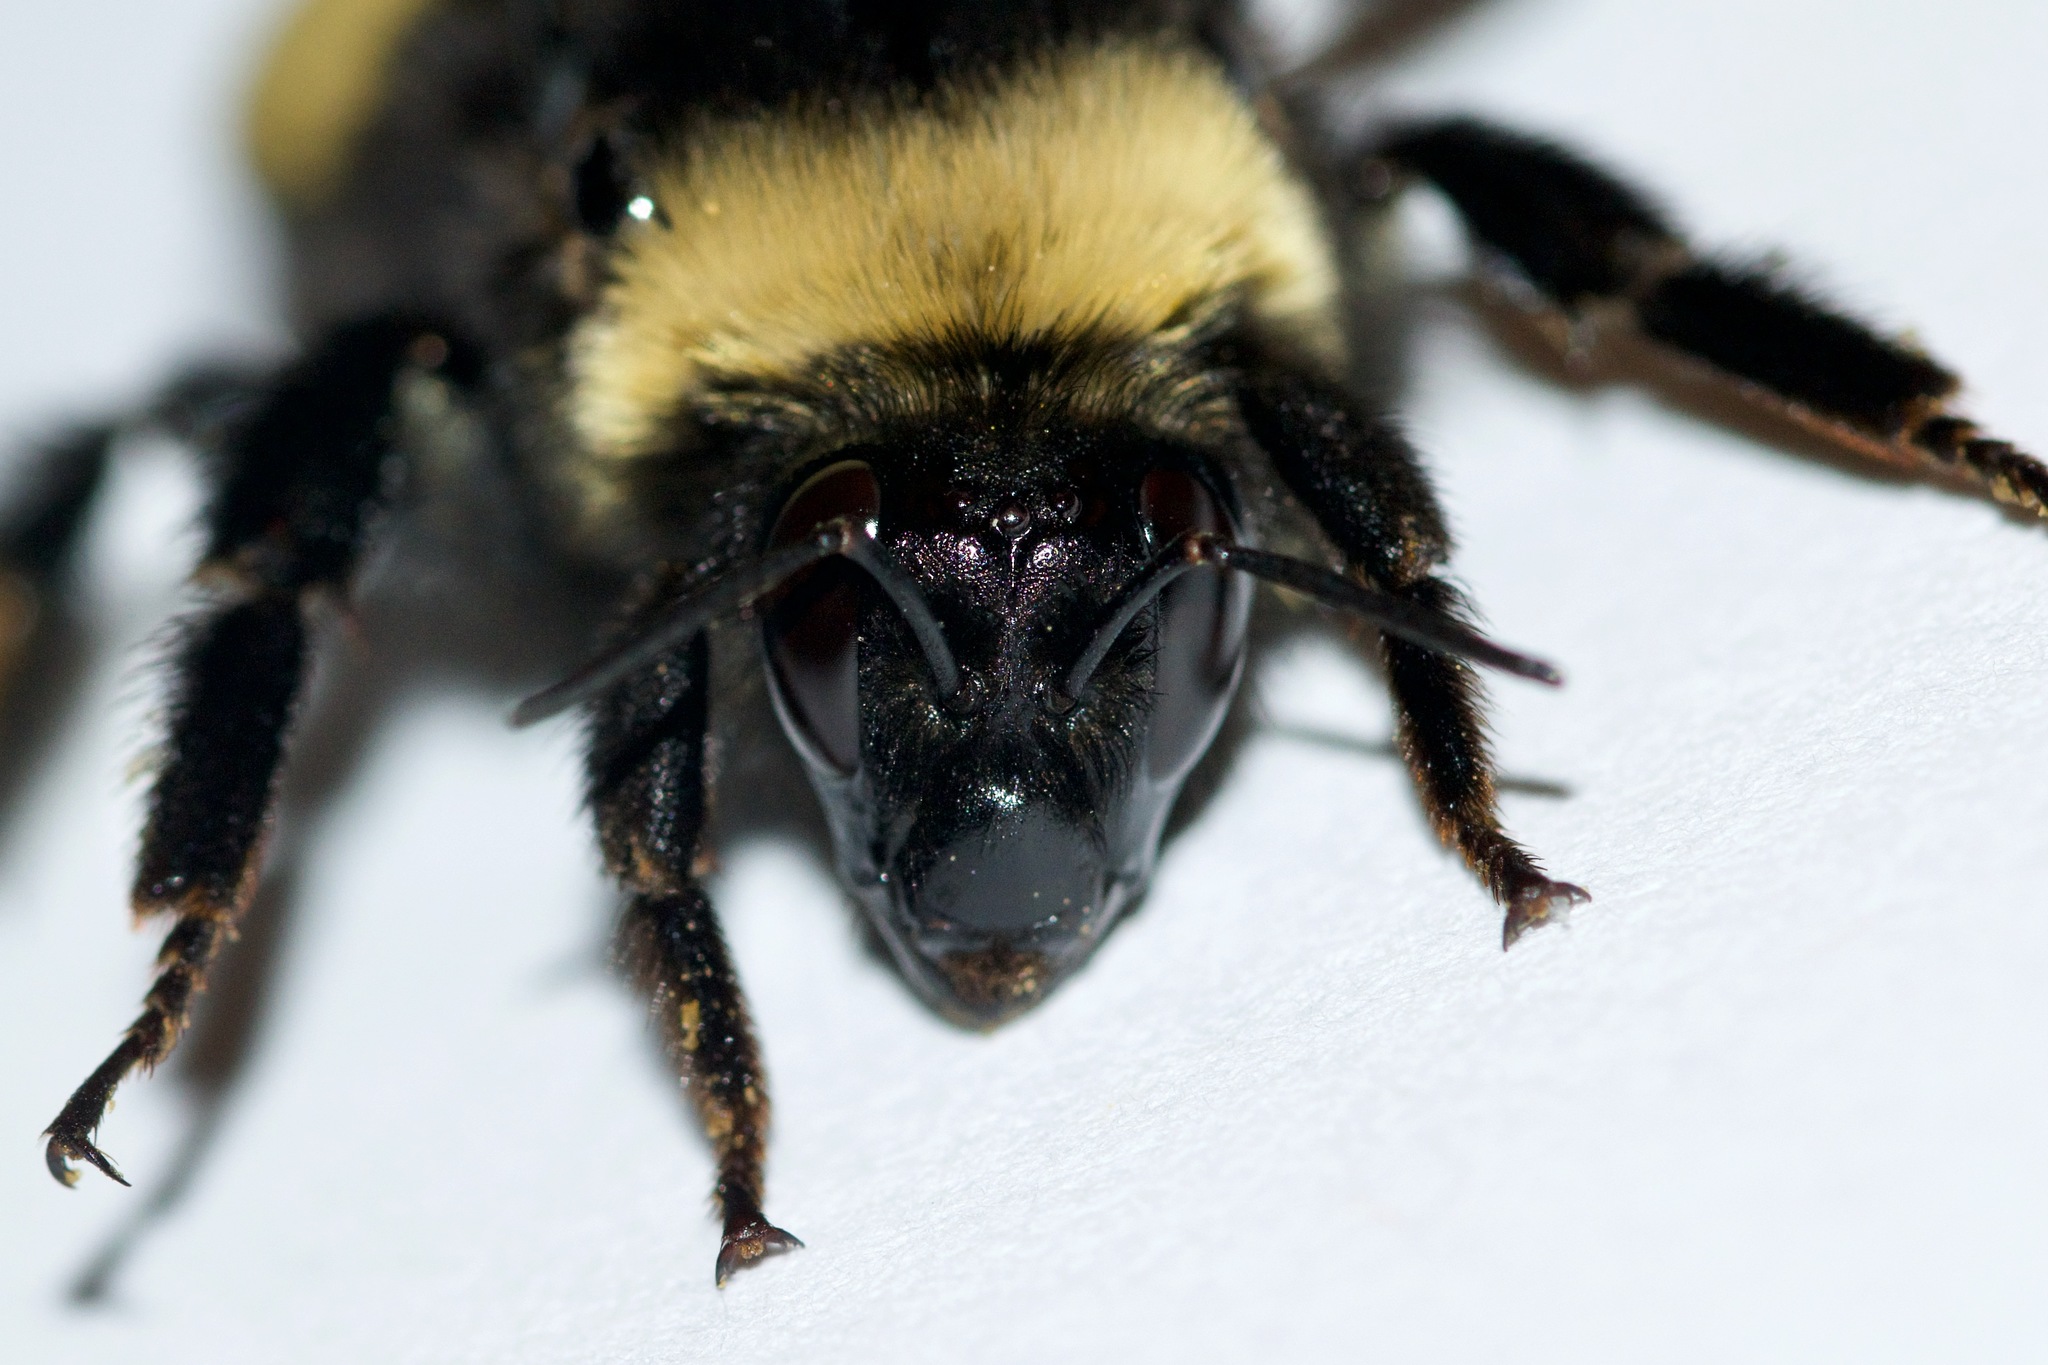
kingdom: Animalia
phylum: Arthropoda
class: Insecta
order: Hymenoptera
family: Apidae
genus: Bombus
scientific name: Bombus auricomus
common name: Black and gold bumble bee
